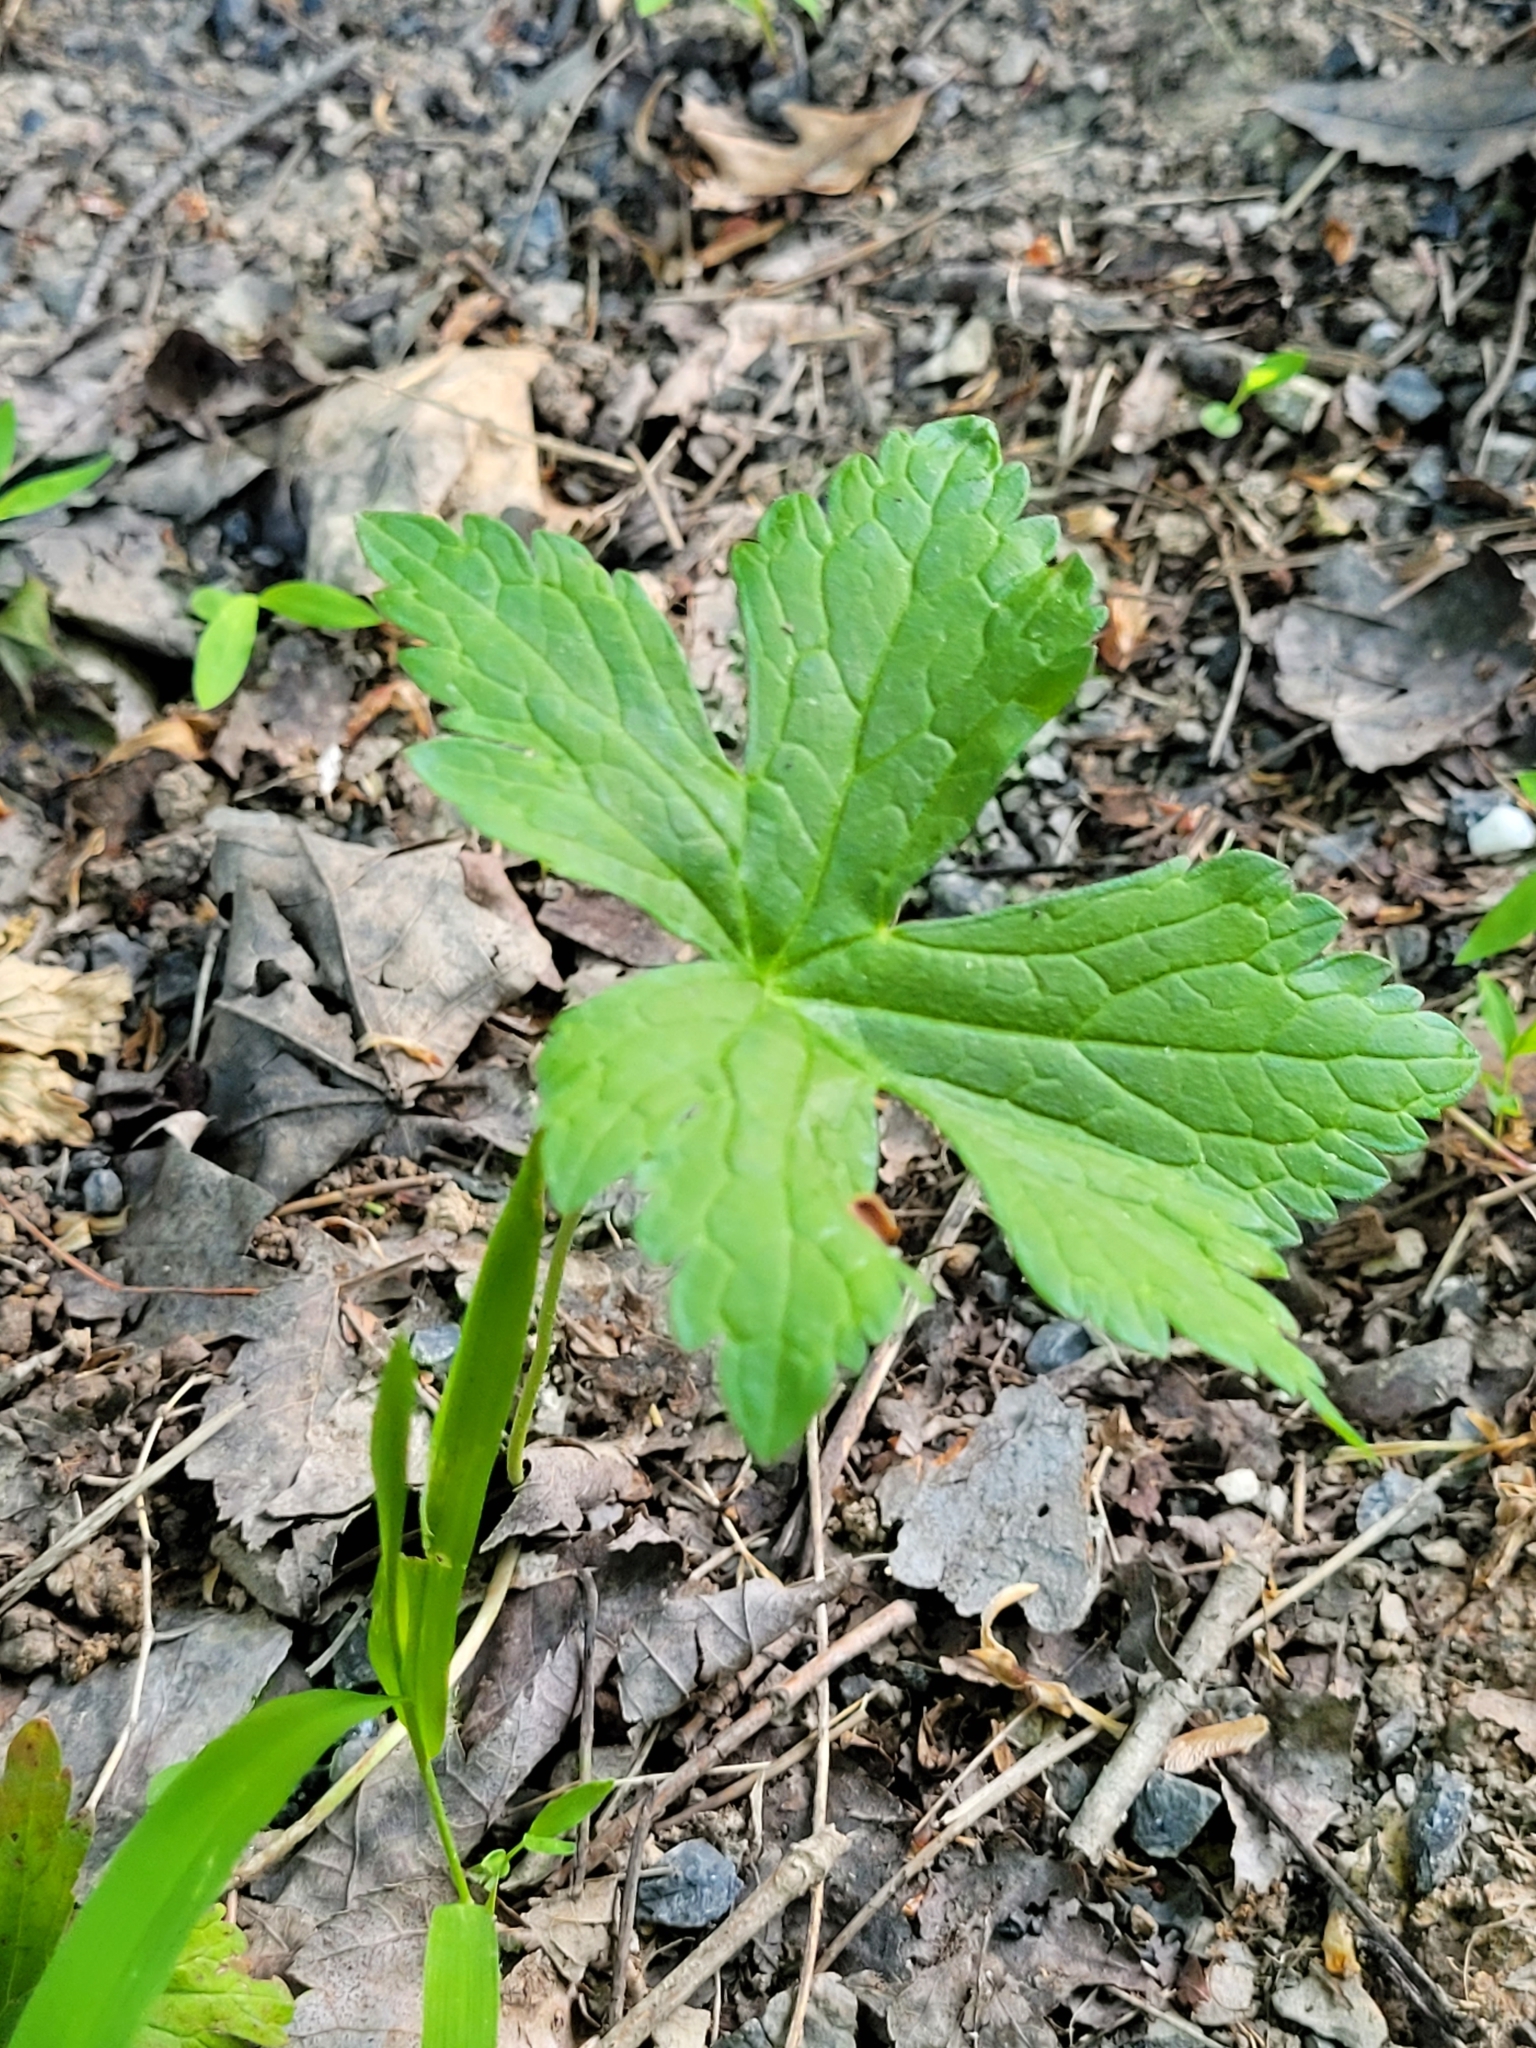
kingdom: Plantae
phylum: Tracheophyta
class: Magnoliopsida
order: Geraniales
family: Geraniaceae
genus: Geranium
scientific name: Geranium maculatum
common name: Spotted geranium
